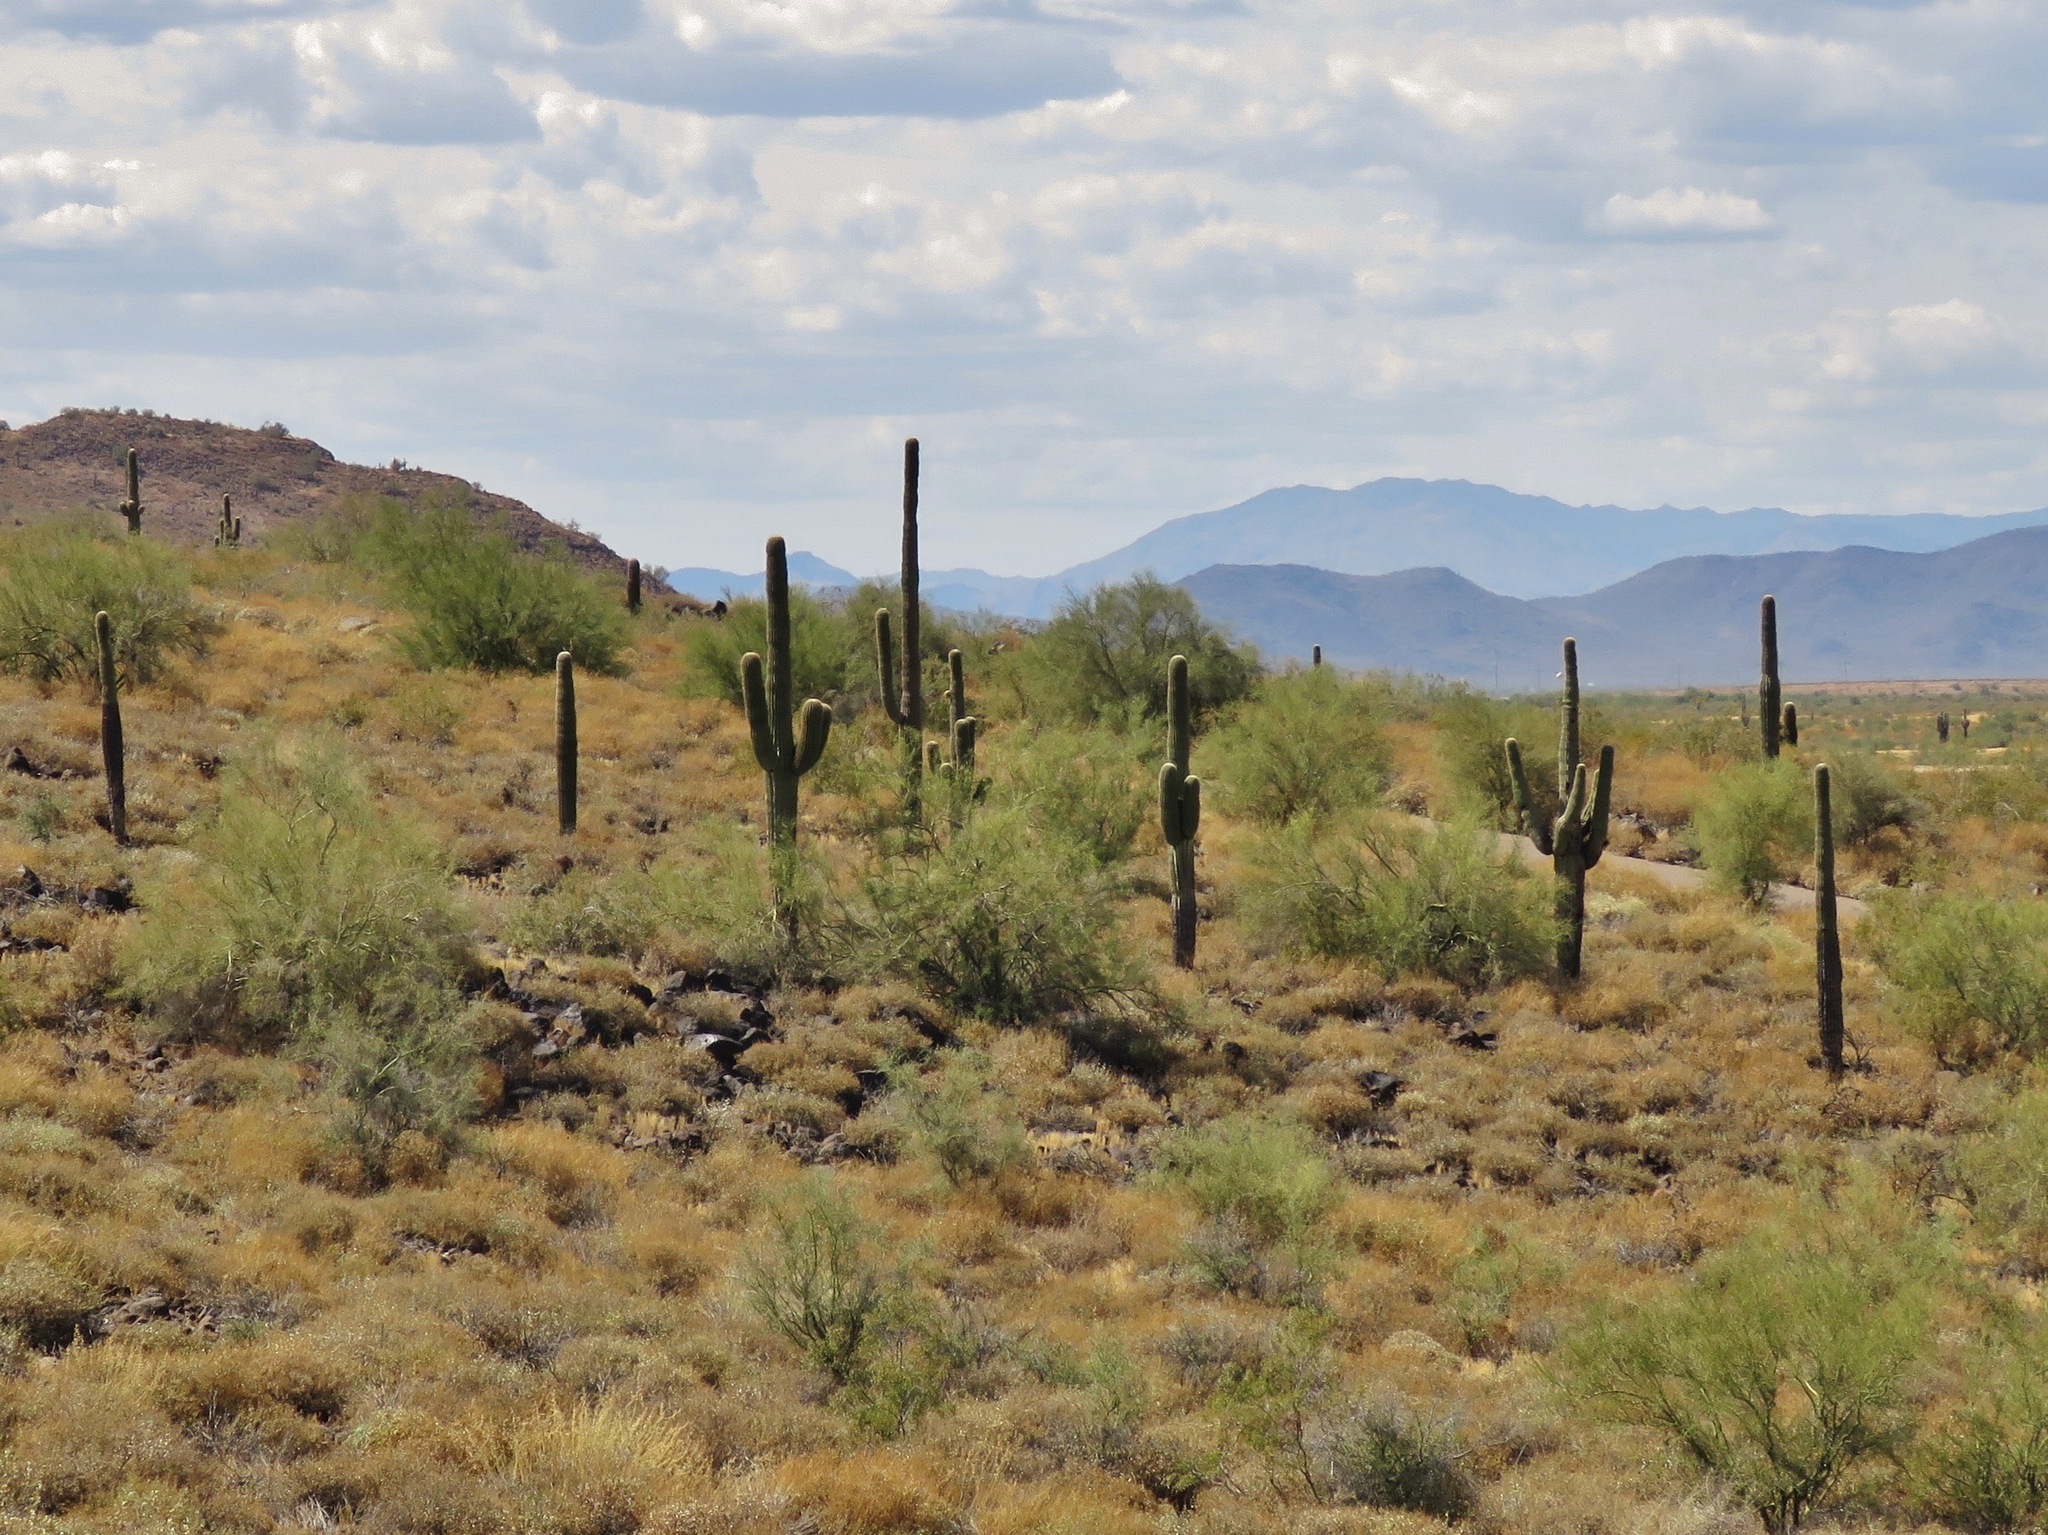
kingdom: Plantae
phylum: Tracheophyta
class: Magnoliopsida
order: Caryophyllales
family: Cactaceae
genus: Carnegiea
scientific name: Carnegiea gigantea
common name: Saguaro
